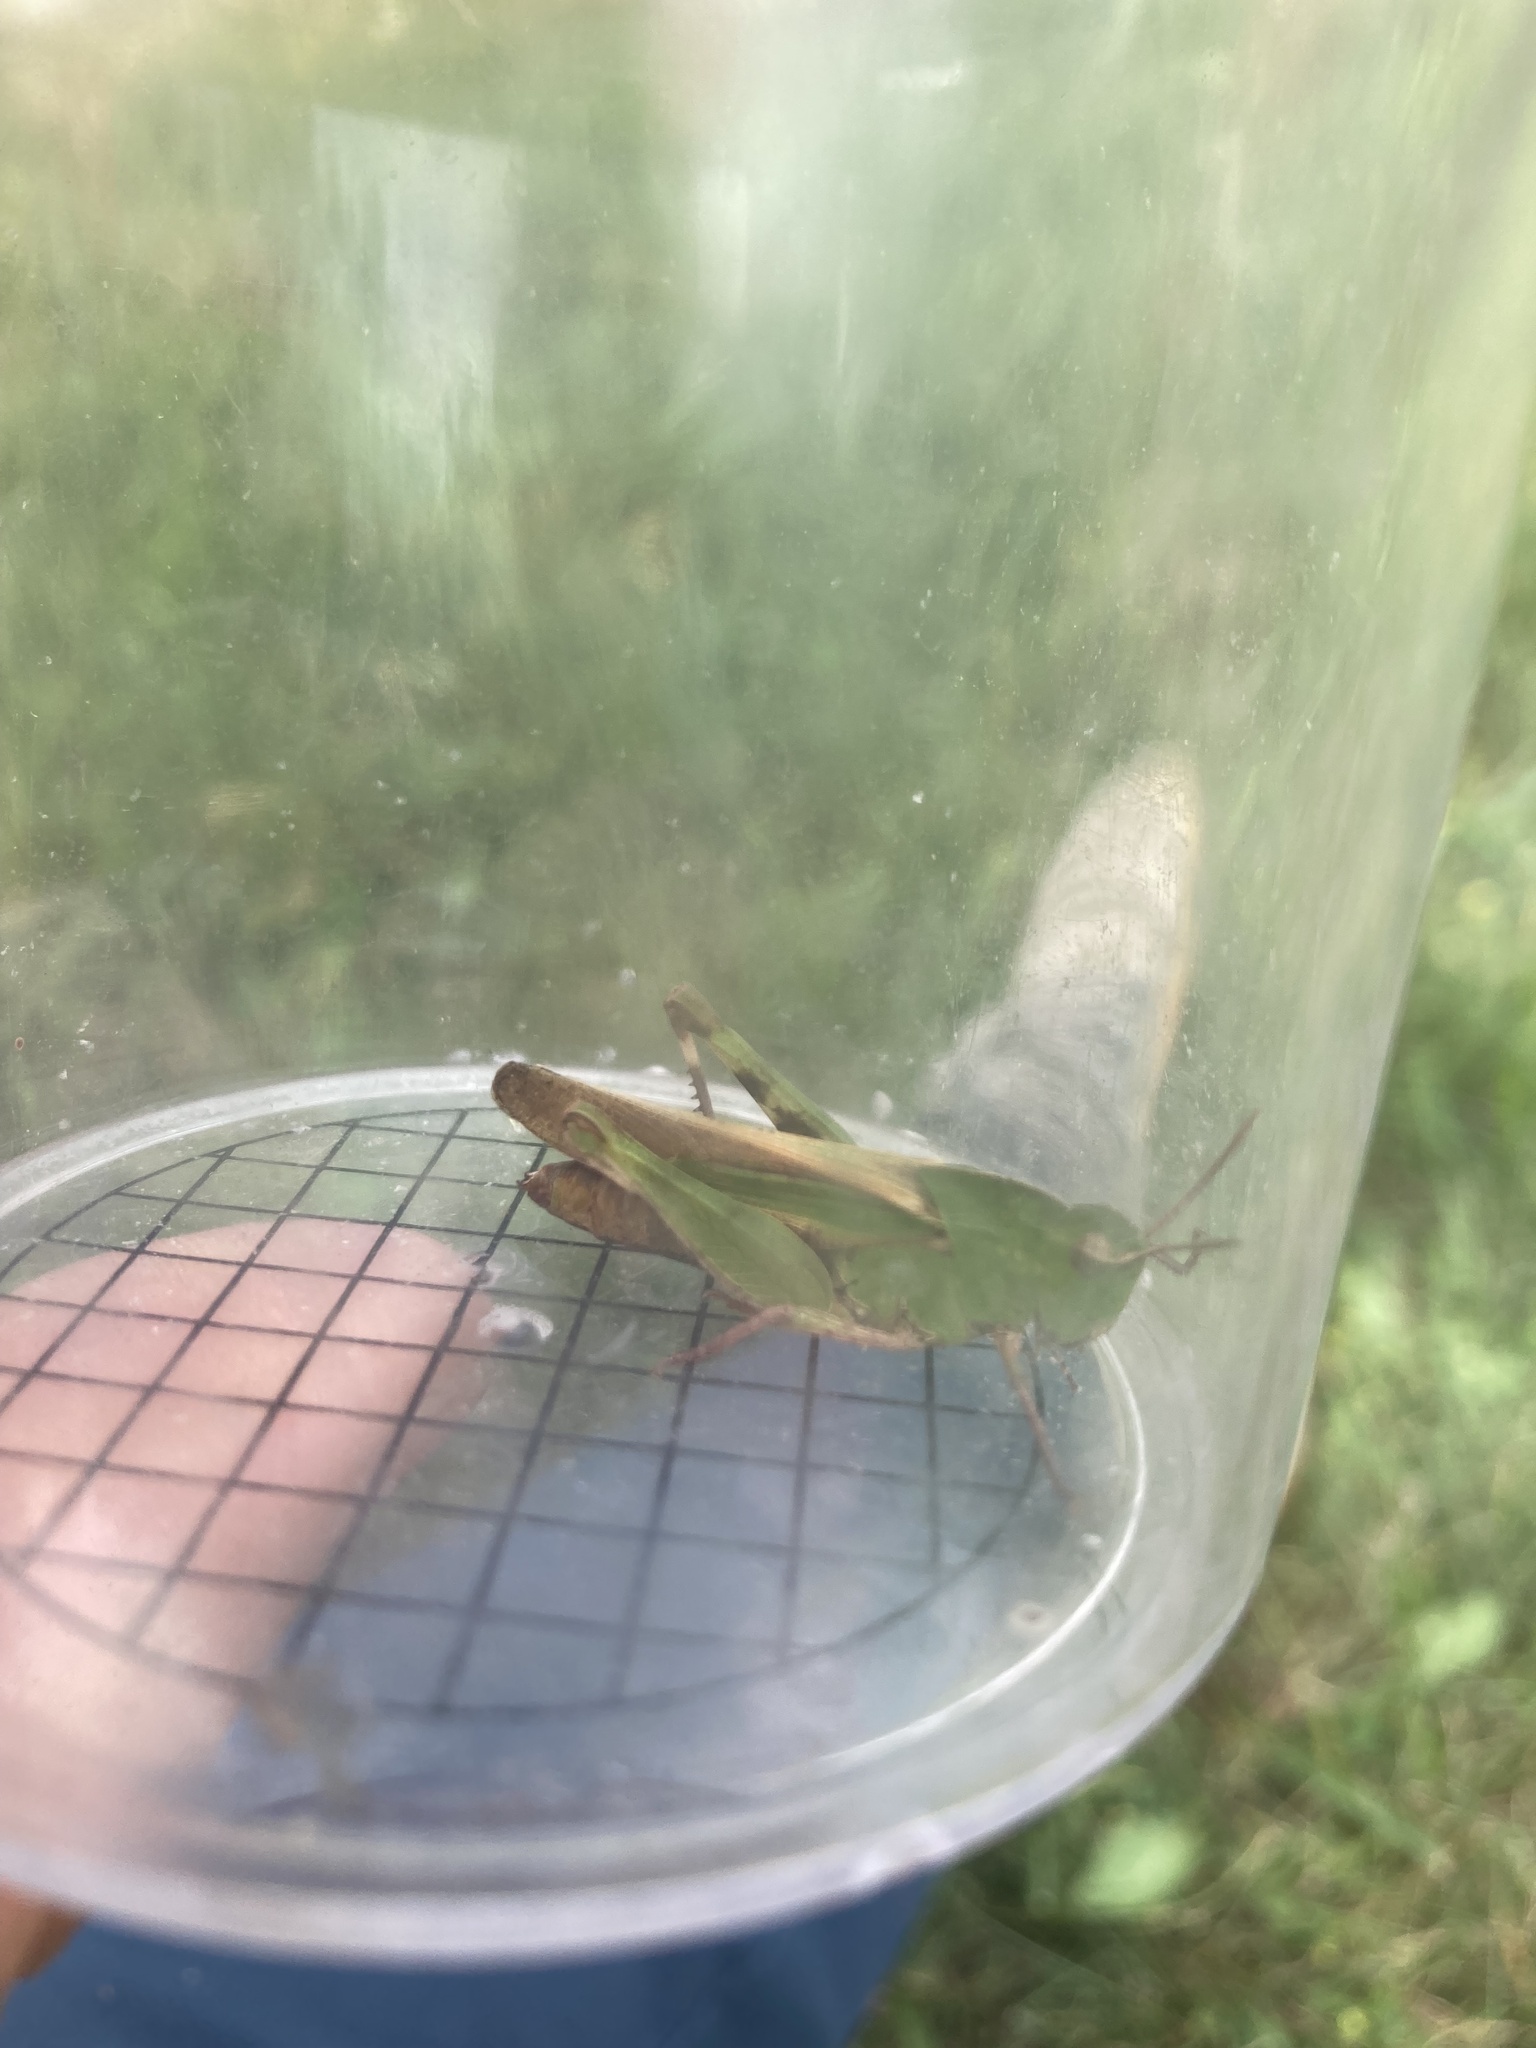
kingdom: Animalia
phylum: Arthropoda
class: Insecta
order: Orthoptera
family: Acrididae
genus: Chortophaga
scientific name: Chortophaga viridifasciata
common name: Green-striped grasshopper
